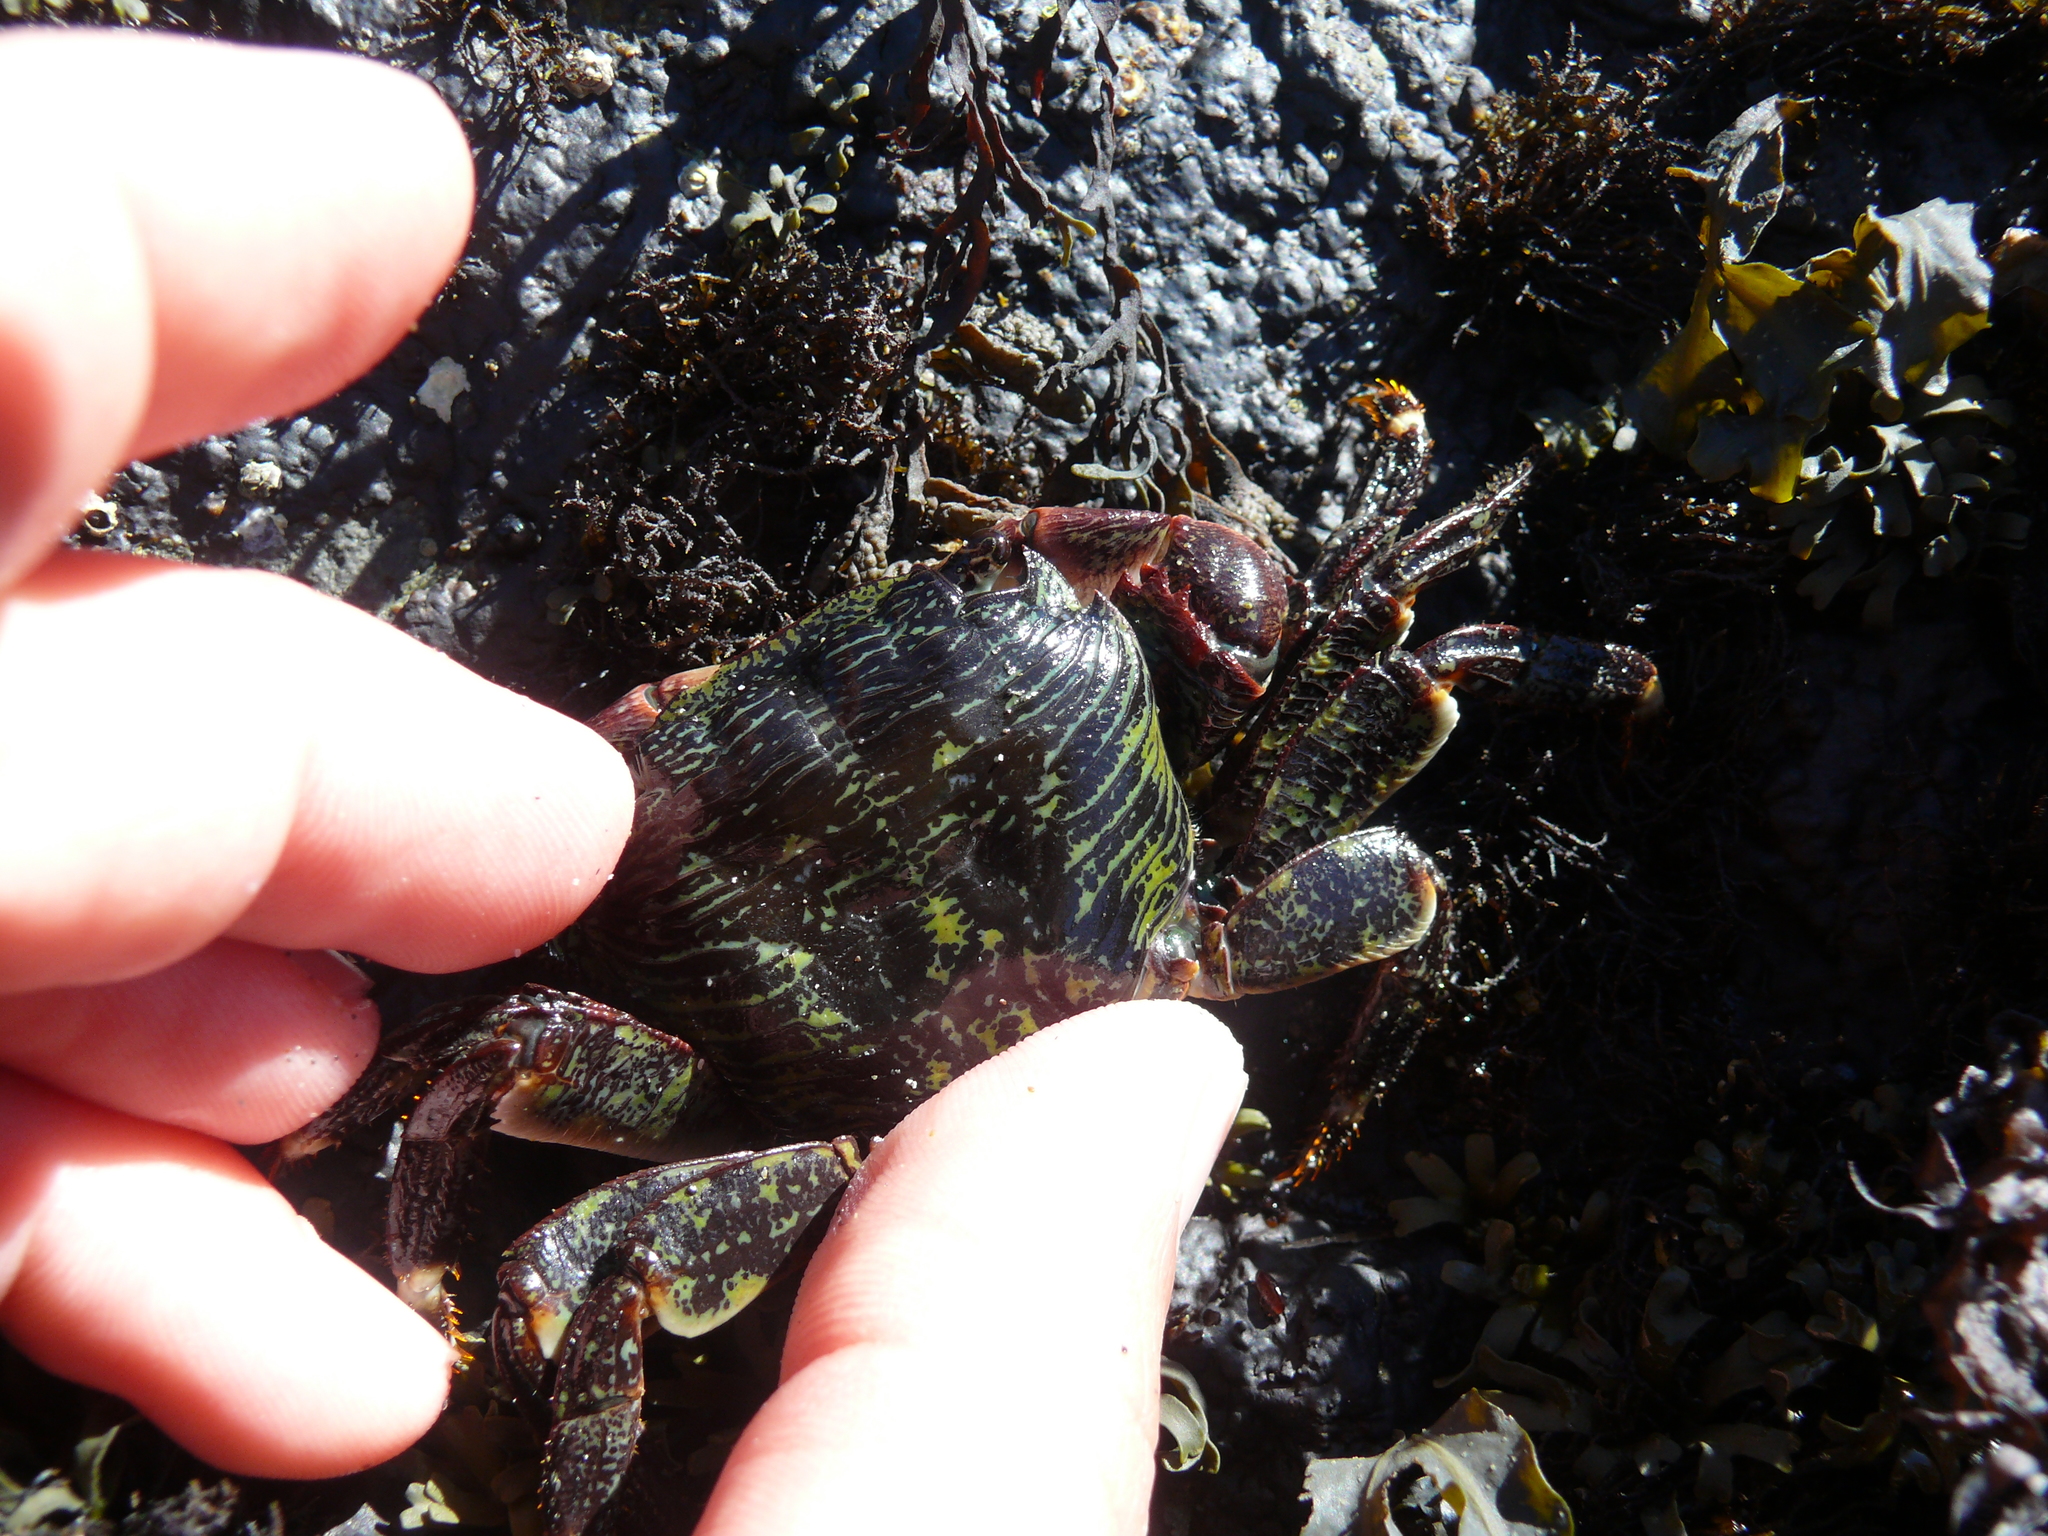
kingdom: Animalia
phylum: Arthropoda
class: Malacostraca
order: Decapoda
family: Grapsidae
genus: Pachygrapsus
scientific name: Pachygrapsus crassipes
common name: Striped shore crab
